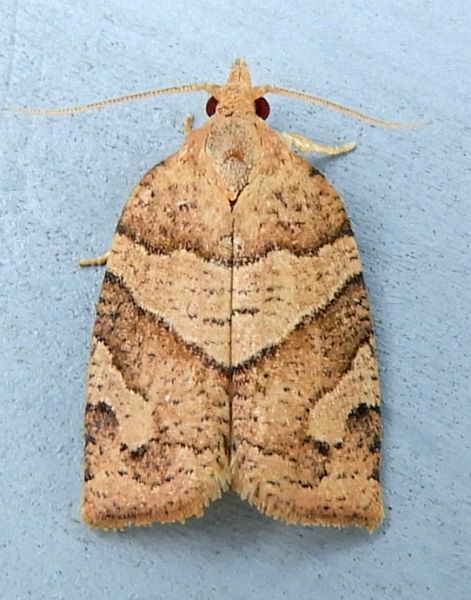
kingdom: Animalia
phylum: Arthropoda
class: Insecta
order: Lepidoptera
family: Tortricidae
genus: Pandemis
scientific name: Pandemis lamprosana
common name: Woodgrain leafroller moth
